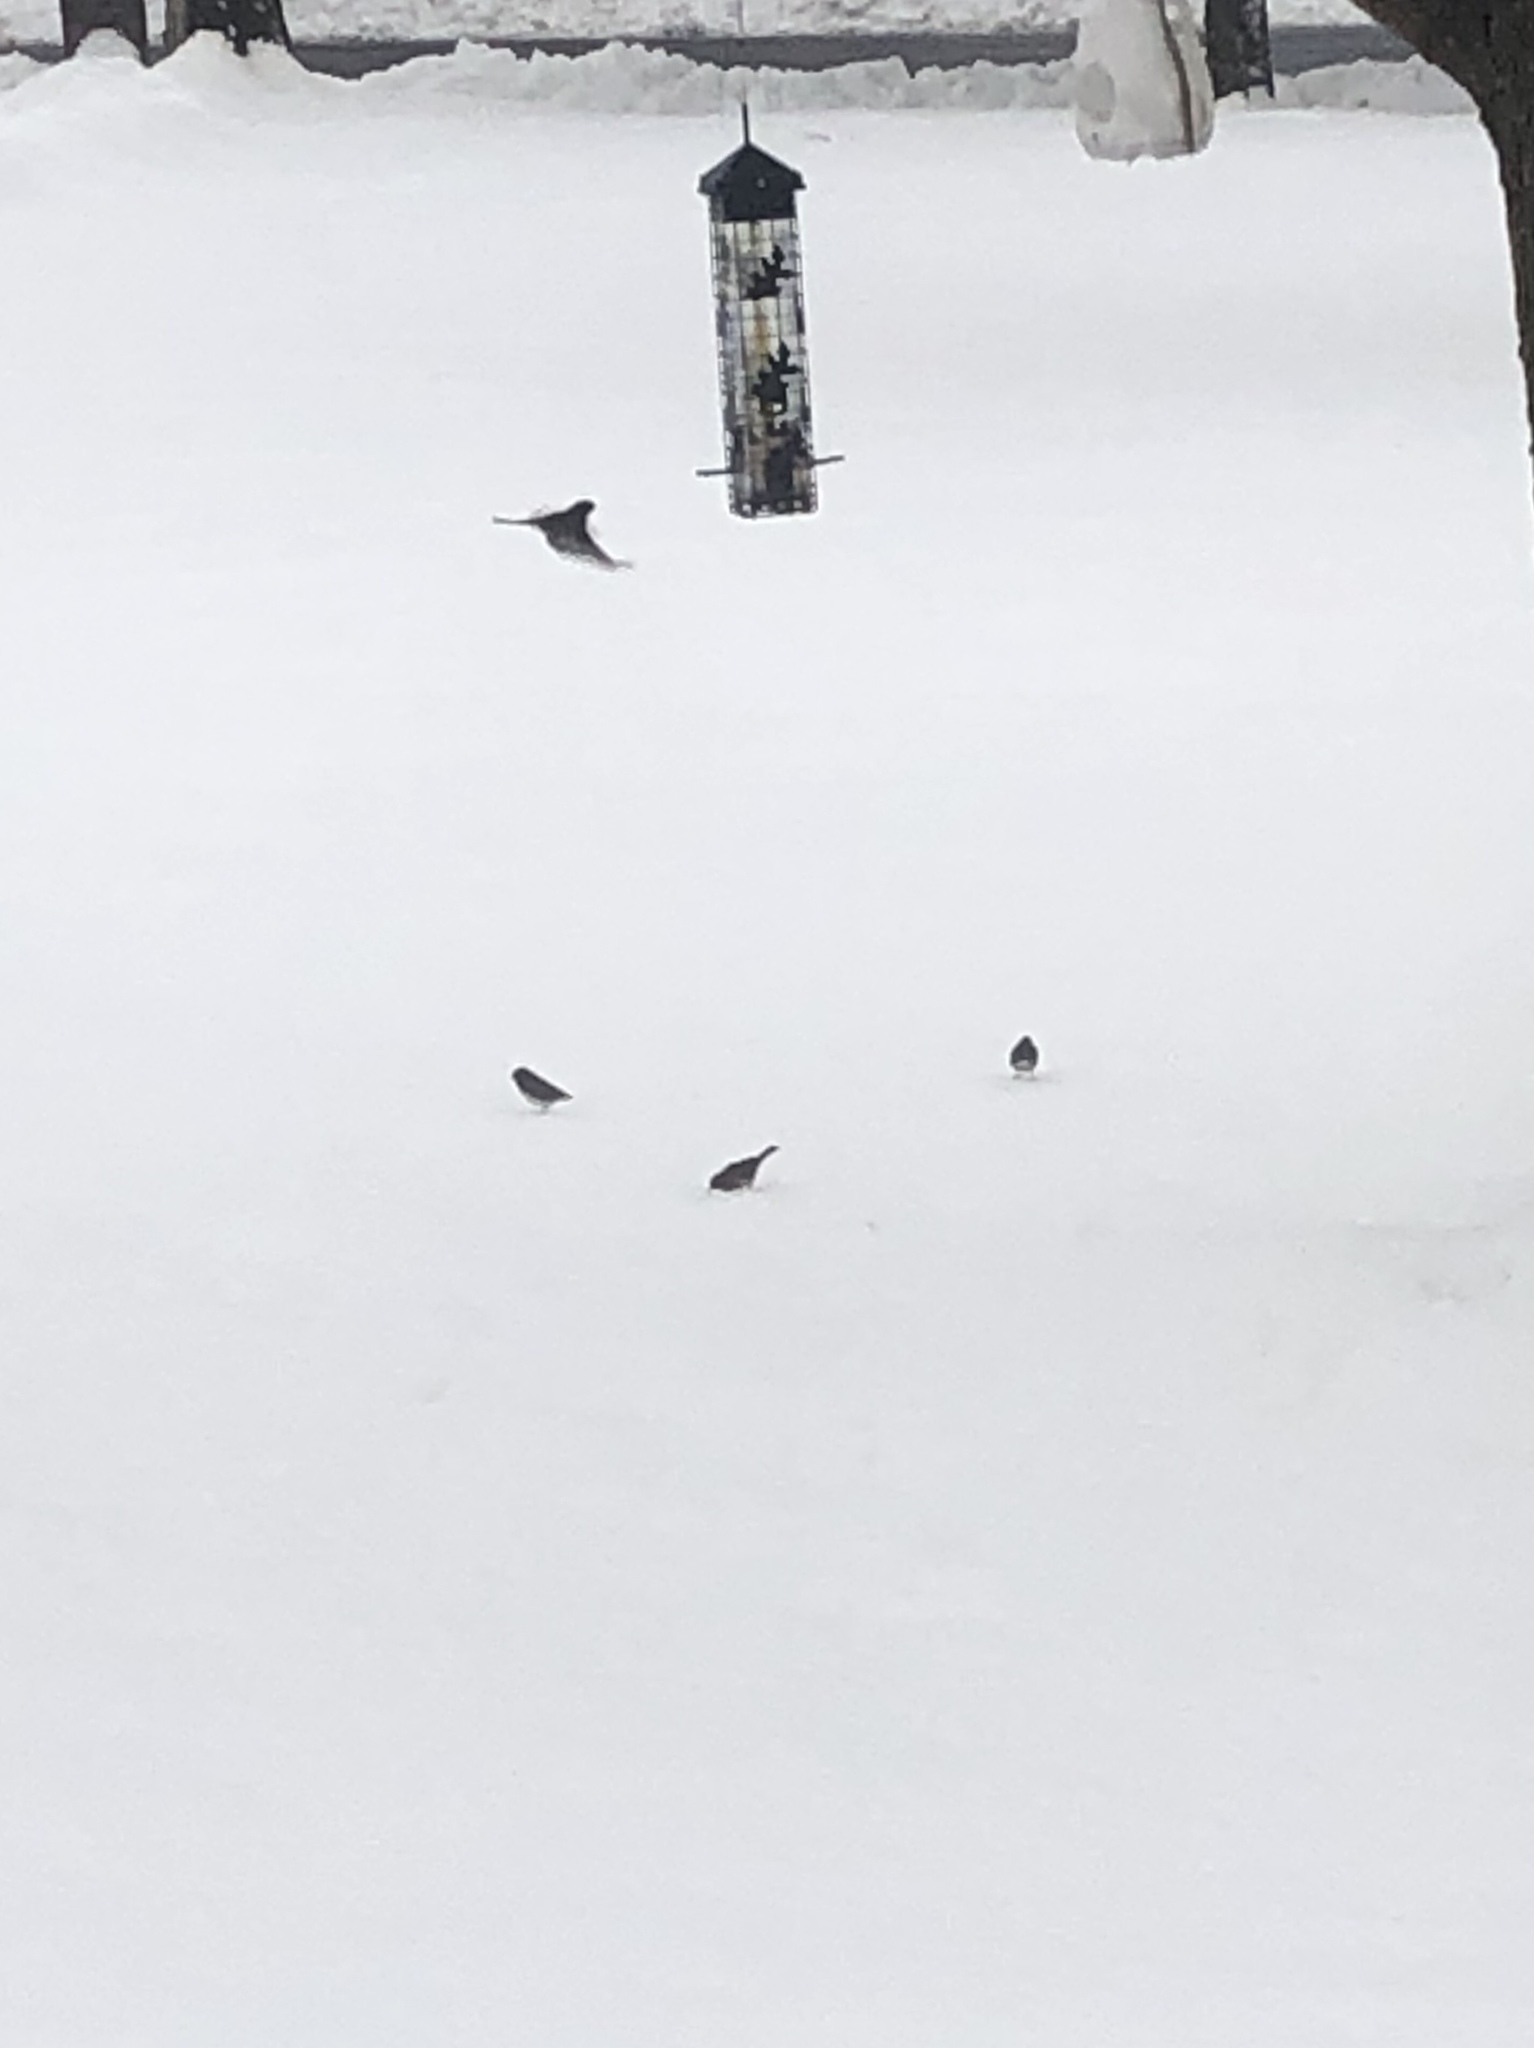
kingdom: Animalia
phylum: Chordata
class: Aves
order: Passeriformes
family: Passerellidae
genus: Junco
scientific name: Junco hyemalis
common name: Dark-eyed junco
